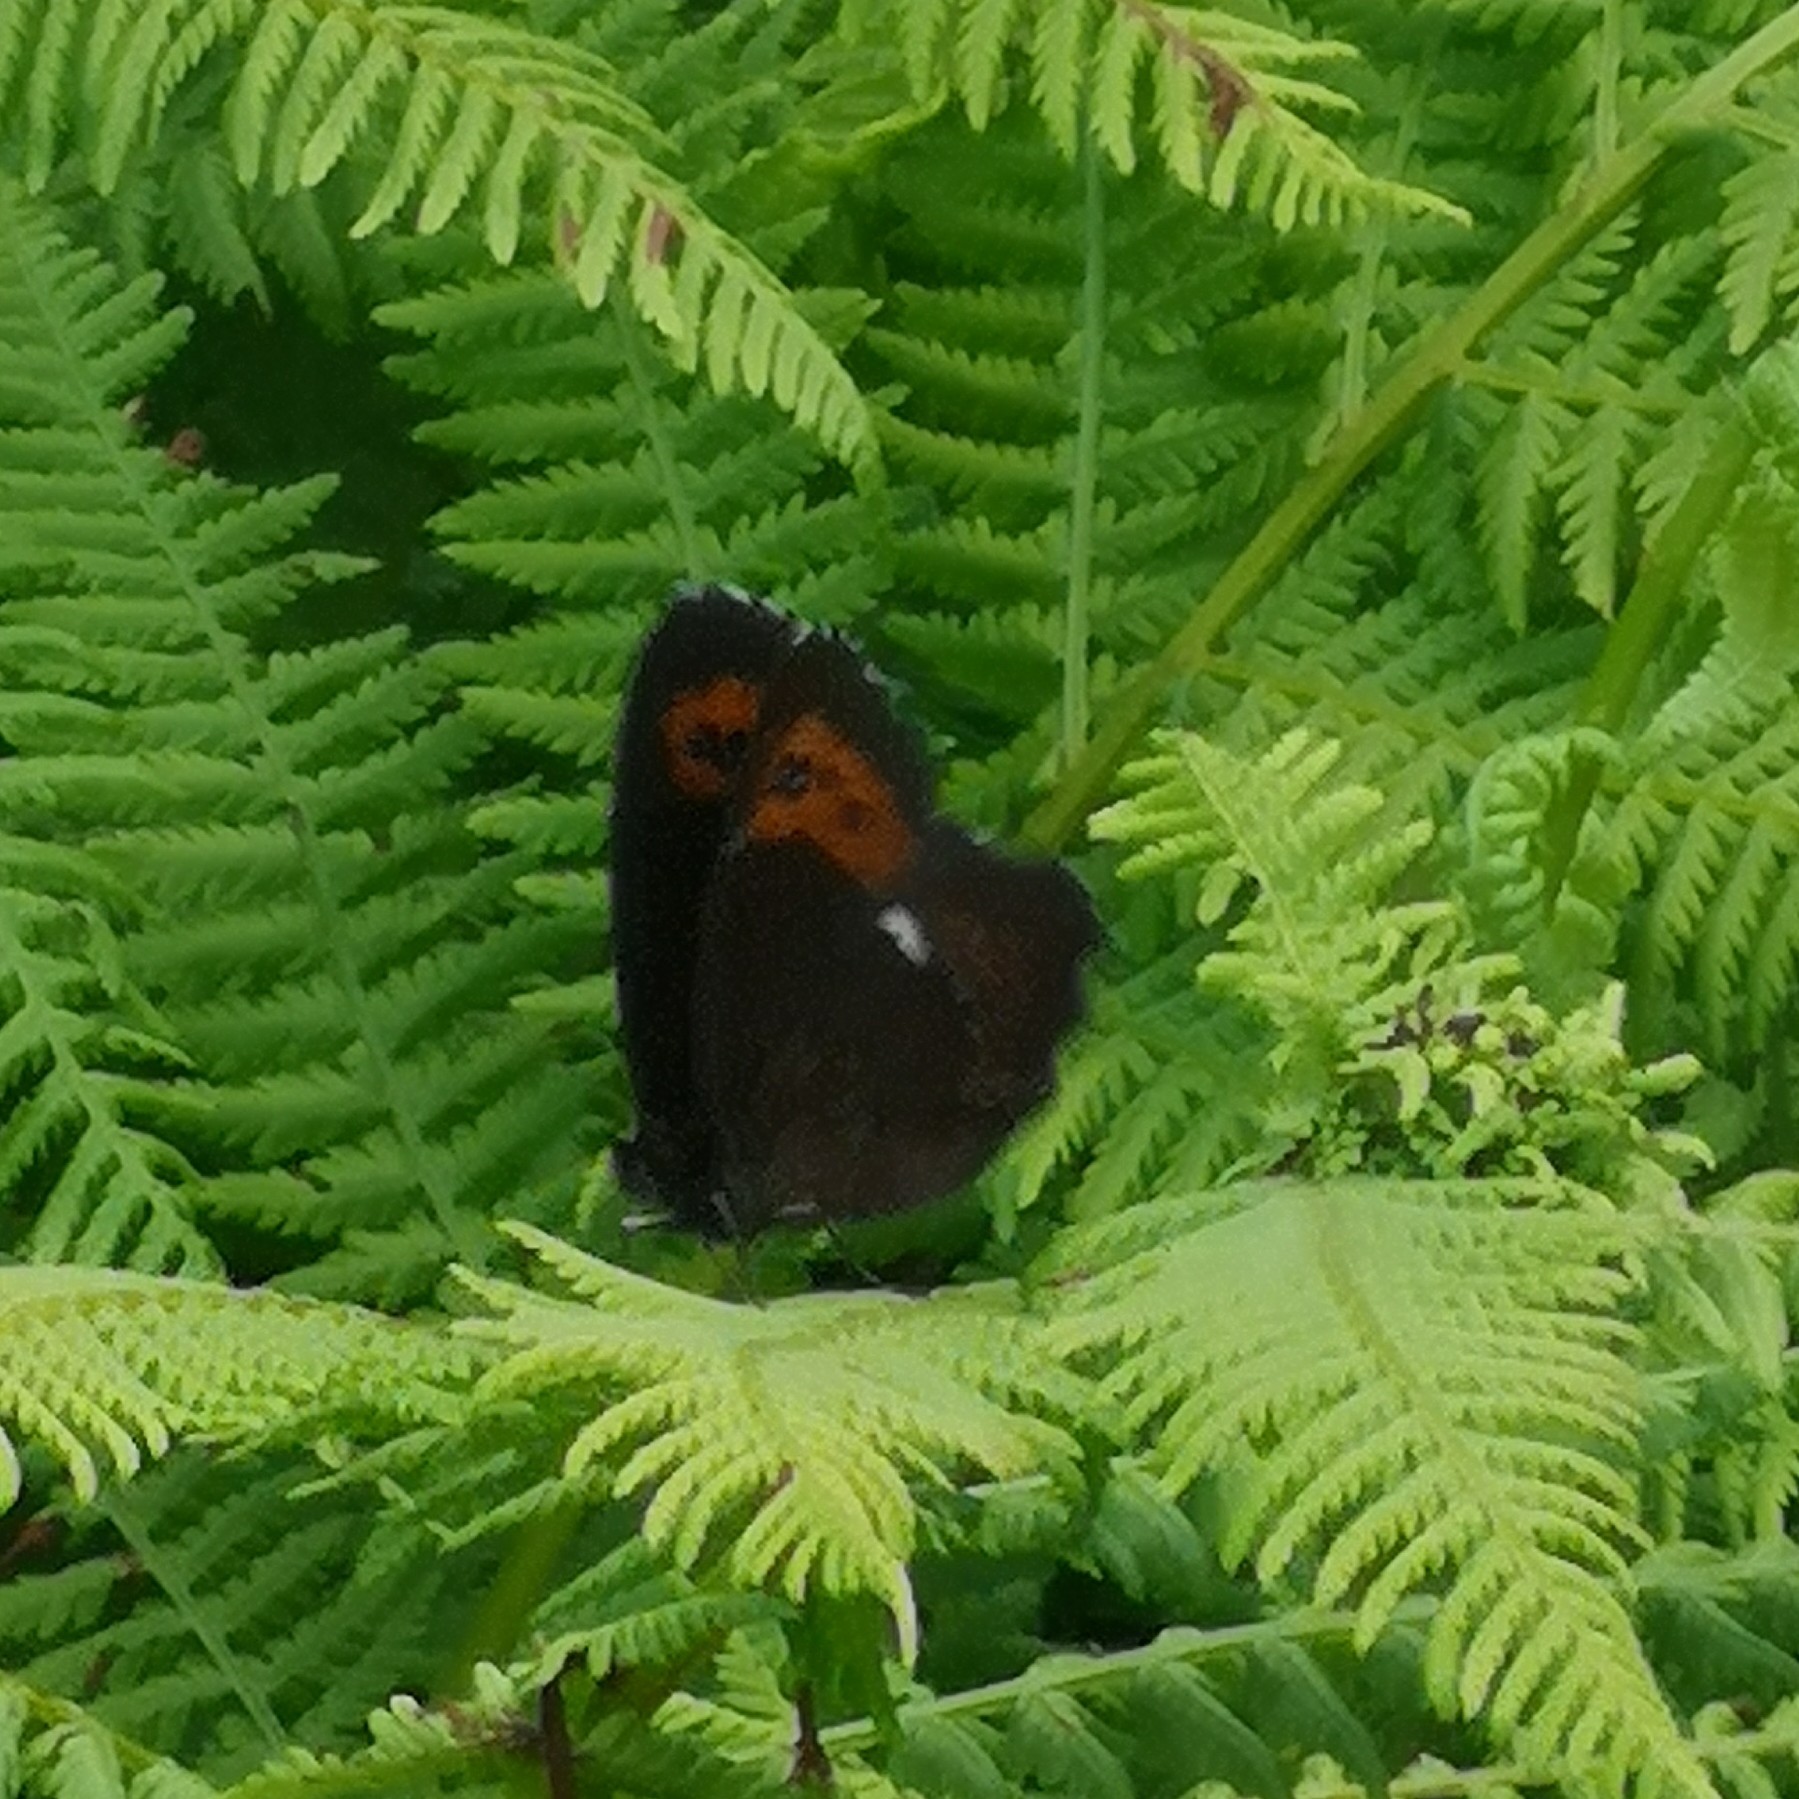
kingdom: Animalia
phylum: Arthropoda
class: Insecta
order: Lepidoptera
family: Nymphalidae
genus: Erebia
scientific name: Erebia ligea
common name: Arran brown
